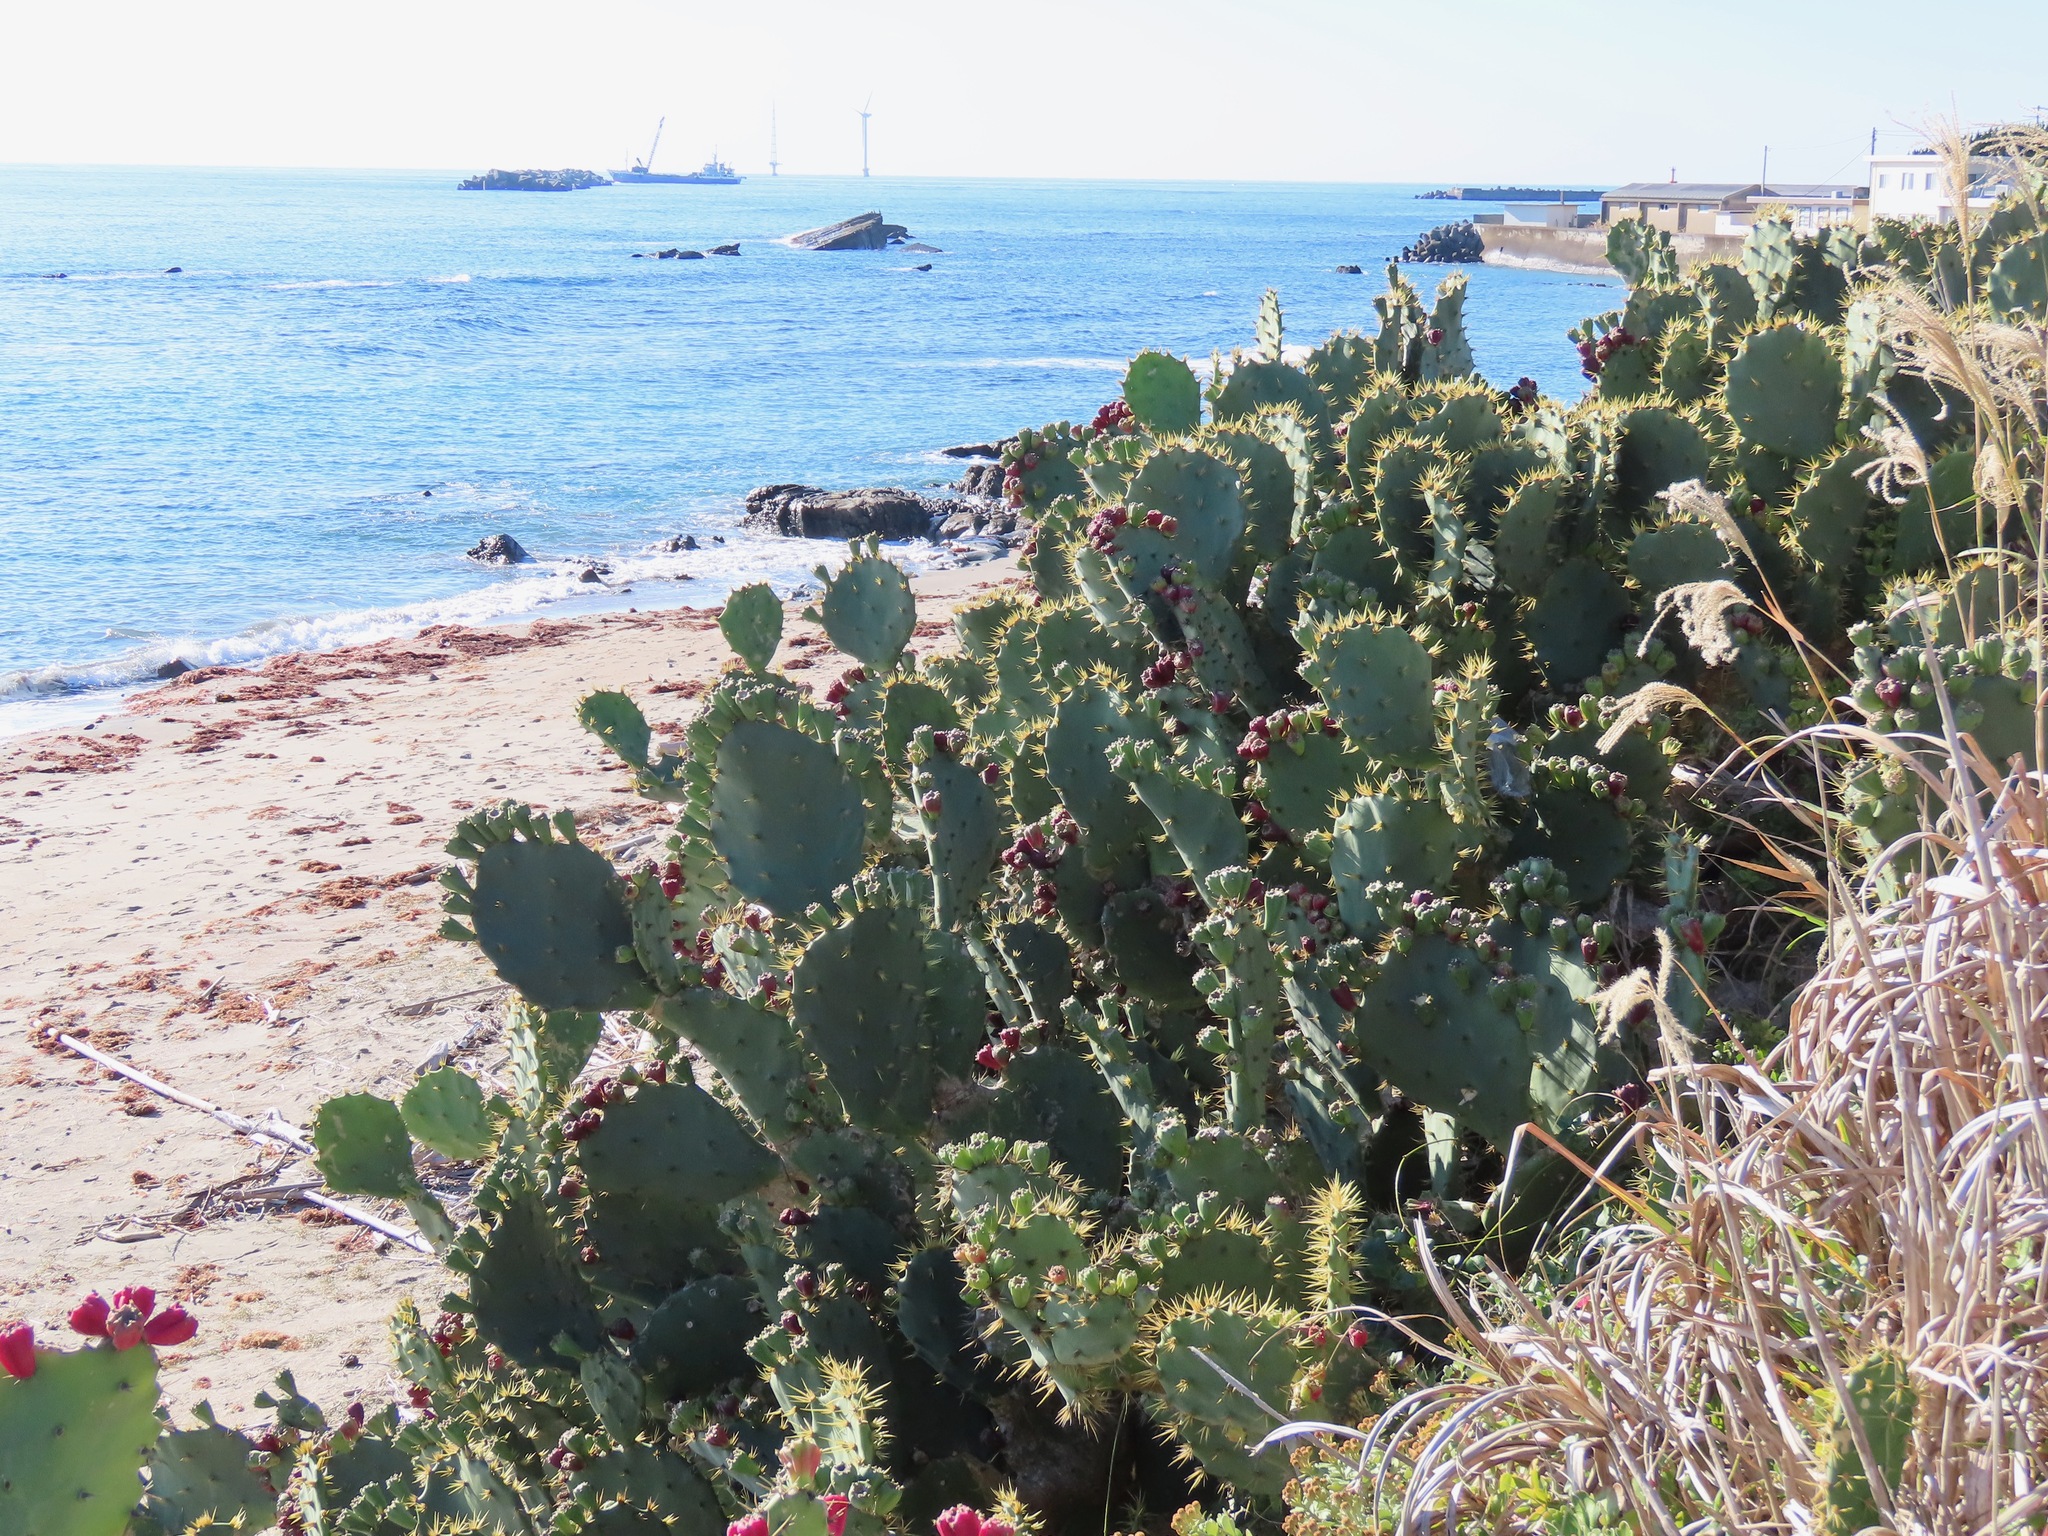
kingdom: Plantae
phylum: Tracheophyta
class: Magnoliopsida
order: Caryophyllales
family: Cactaceae
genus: Opuntia
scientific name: Opuntia dillenii
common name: Sour prickle
